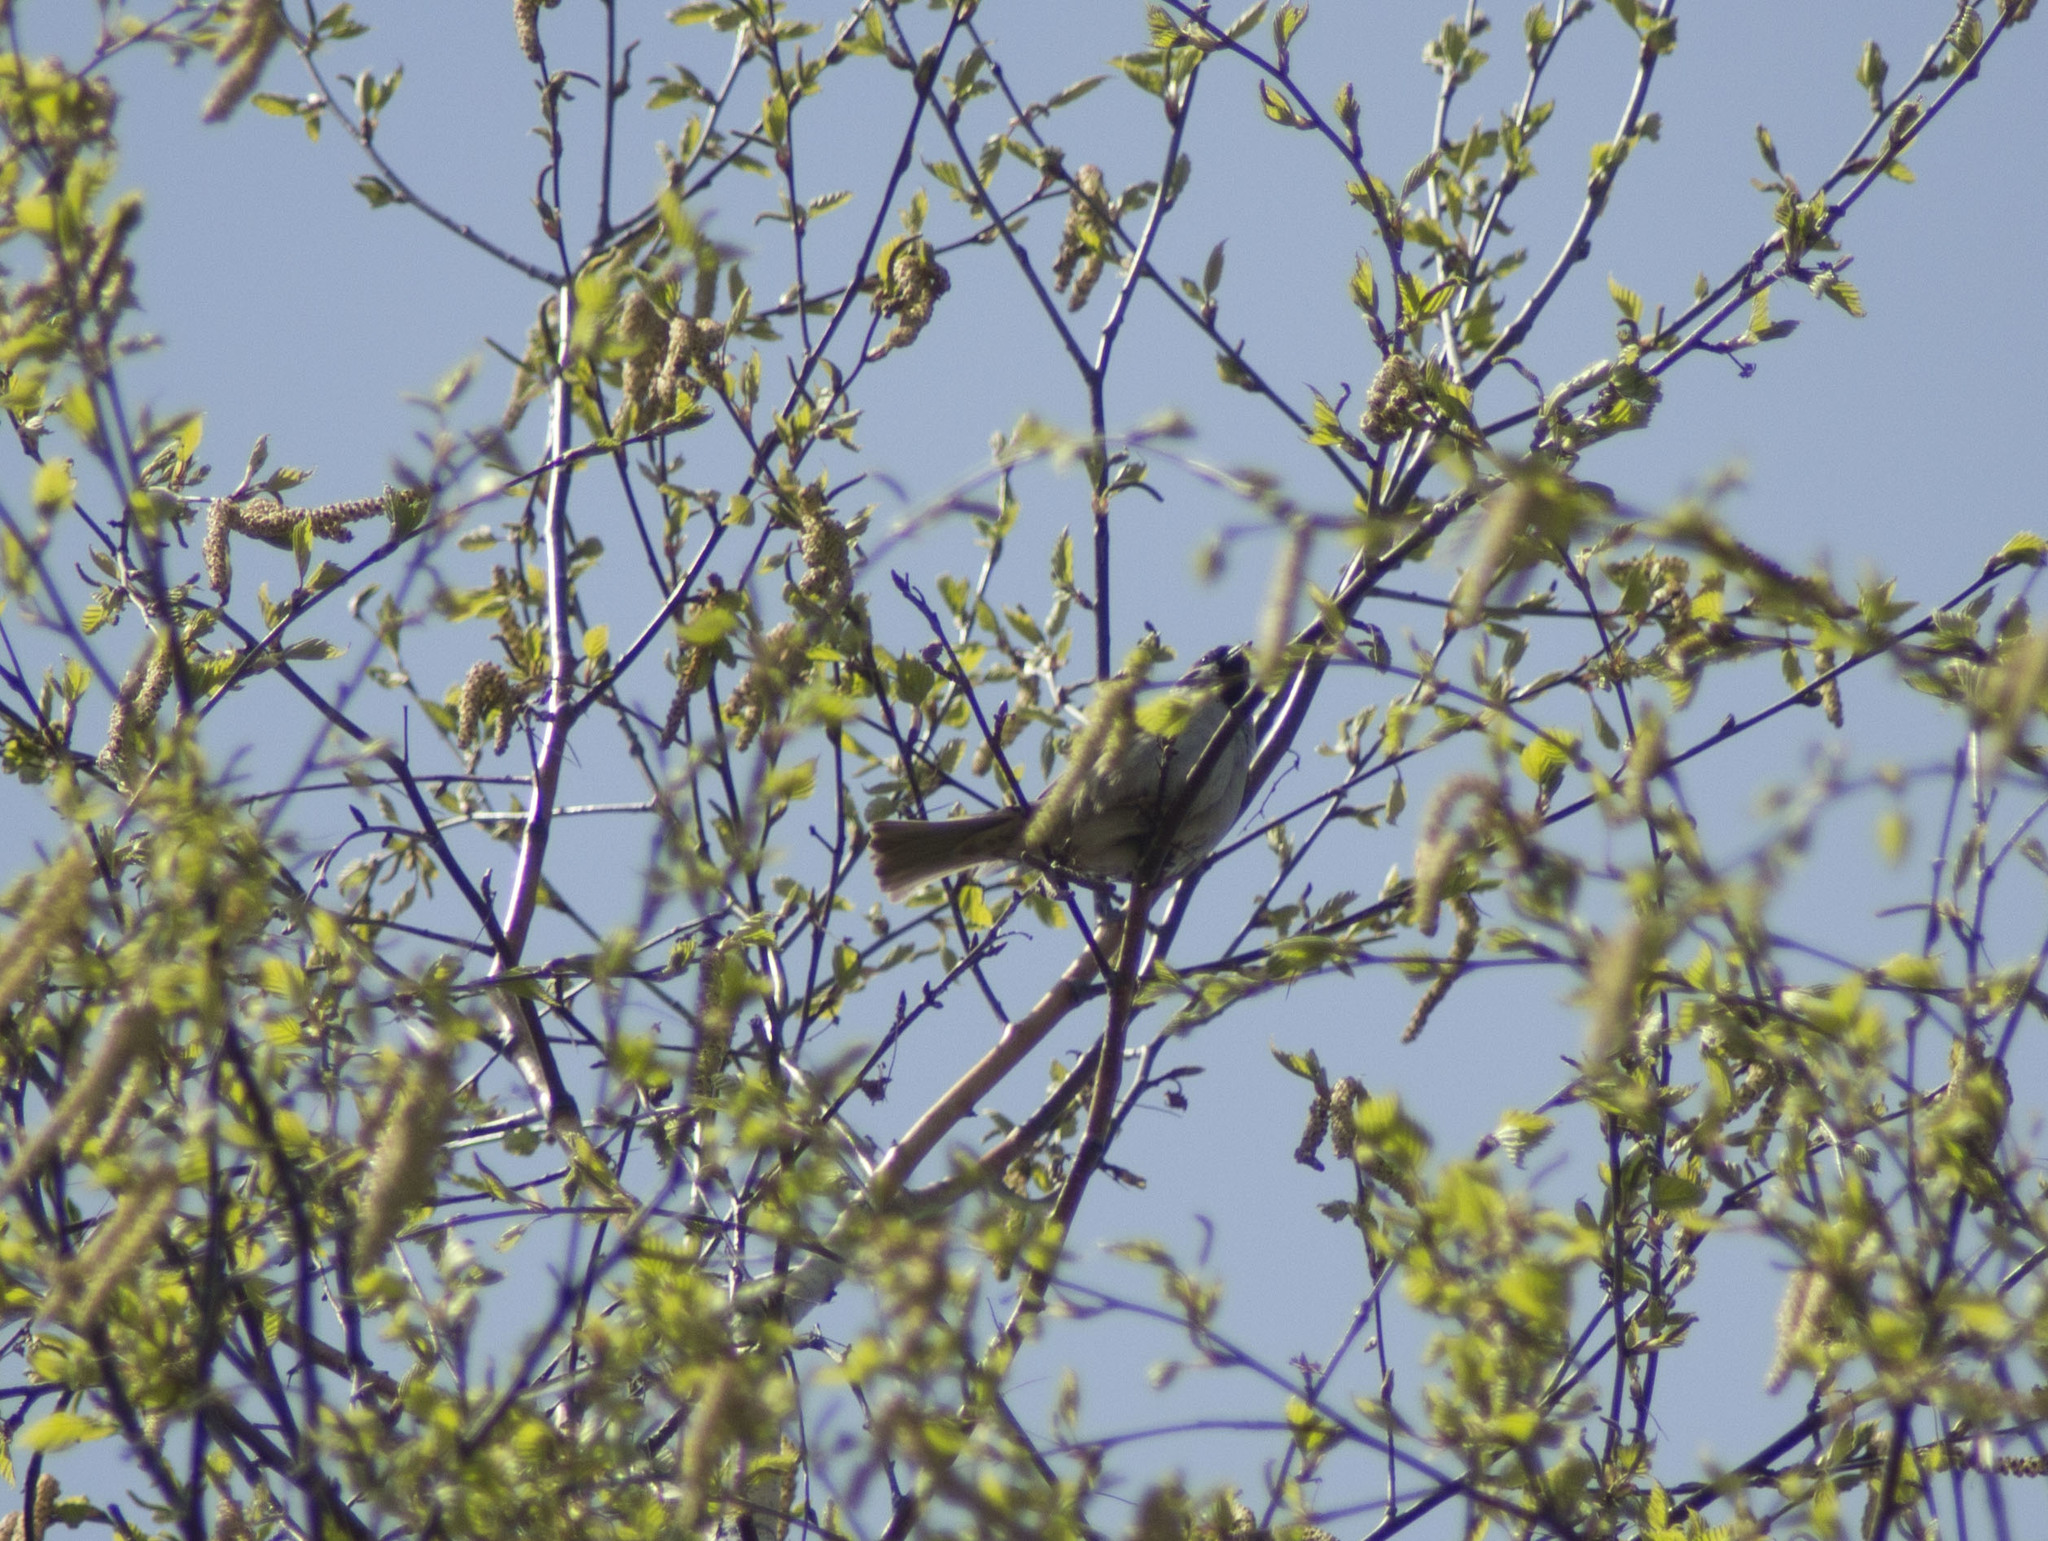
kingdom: Animalia
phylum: Chordata
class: Aves
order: Passeriformes
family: Passeridae
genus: Passer
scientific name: Passer montanus
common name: Eurasian tree sparrow
